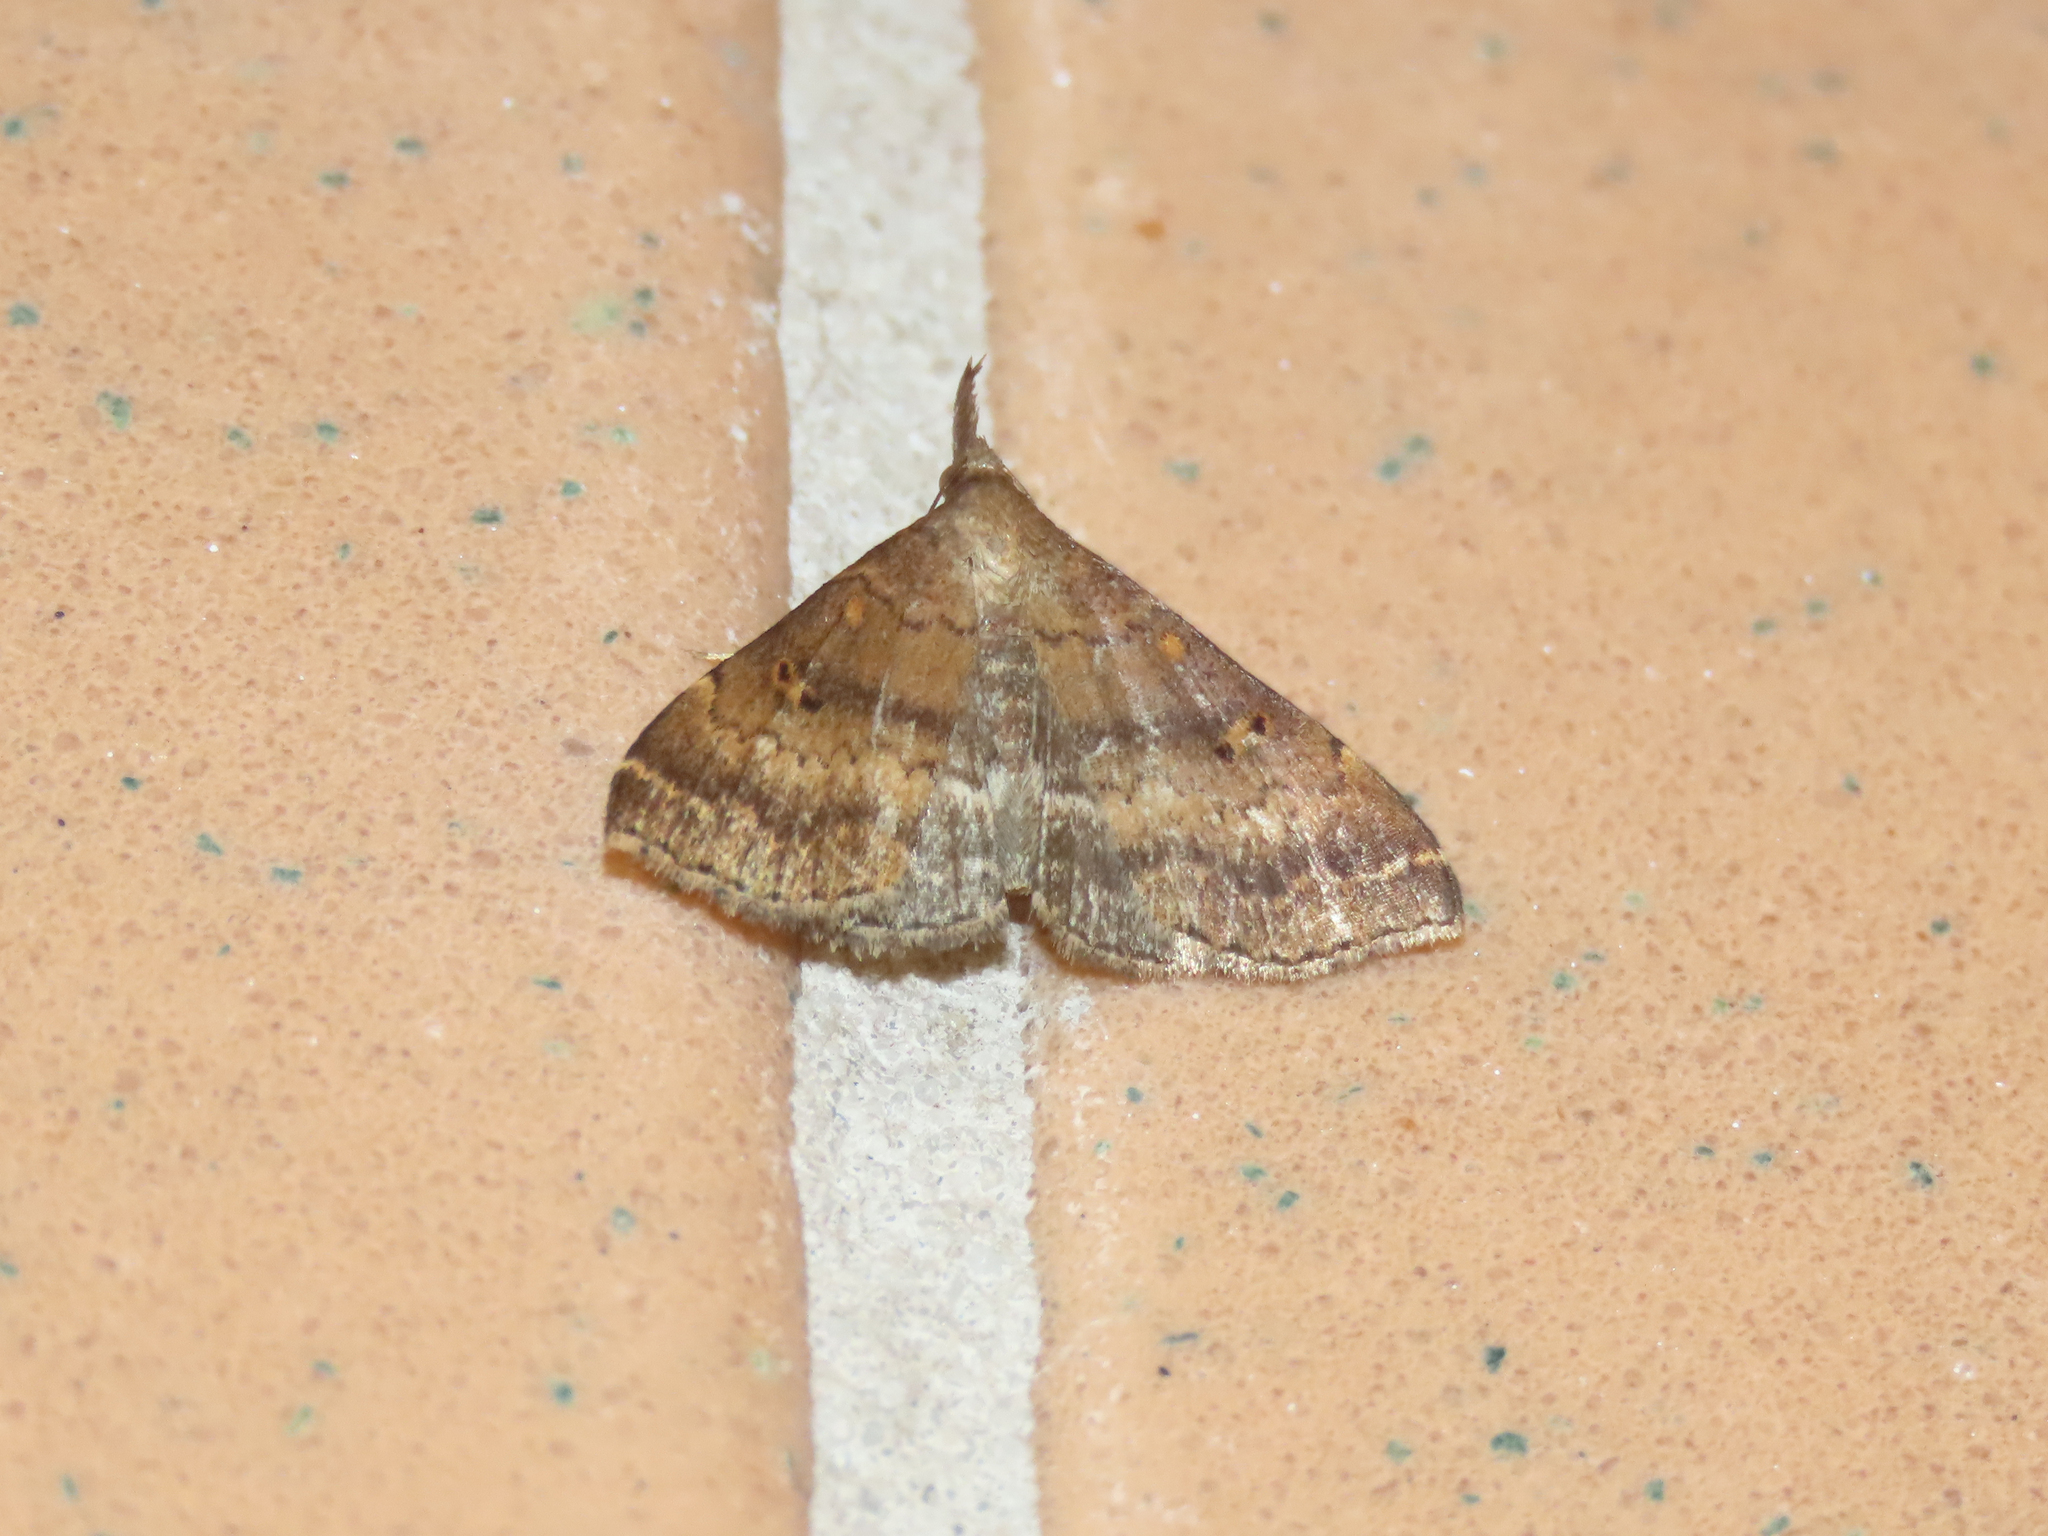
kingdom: Animalia
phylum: Arthropoda
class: Insecta
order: Lepidoptera
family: Erebidae
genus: Renia
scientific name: Renia factiosalis
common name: Sociable renia moth
